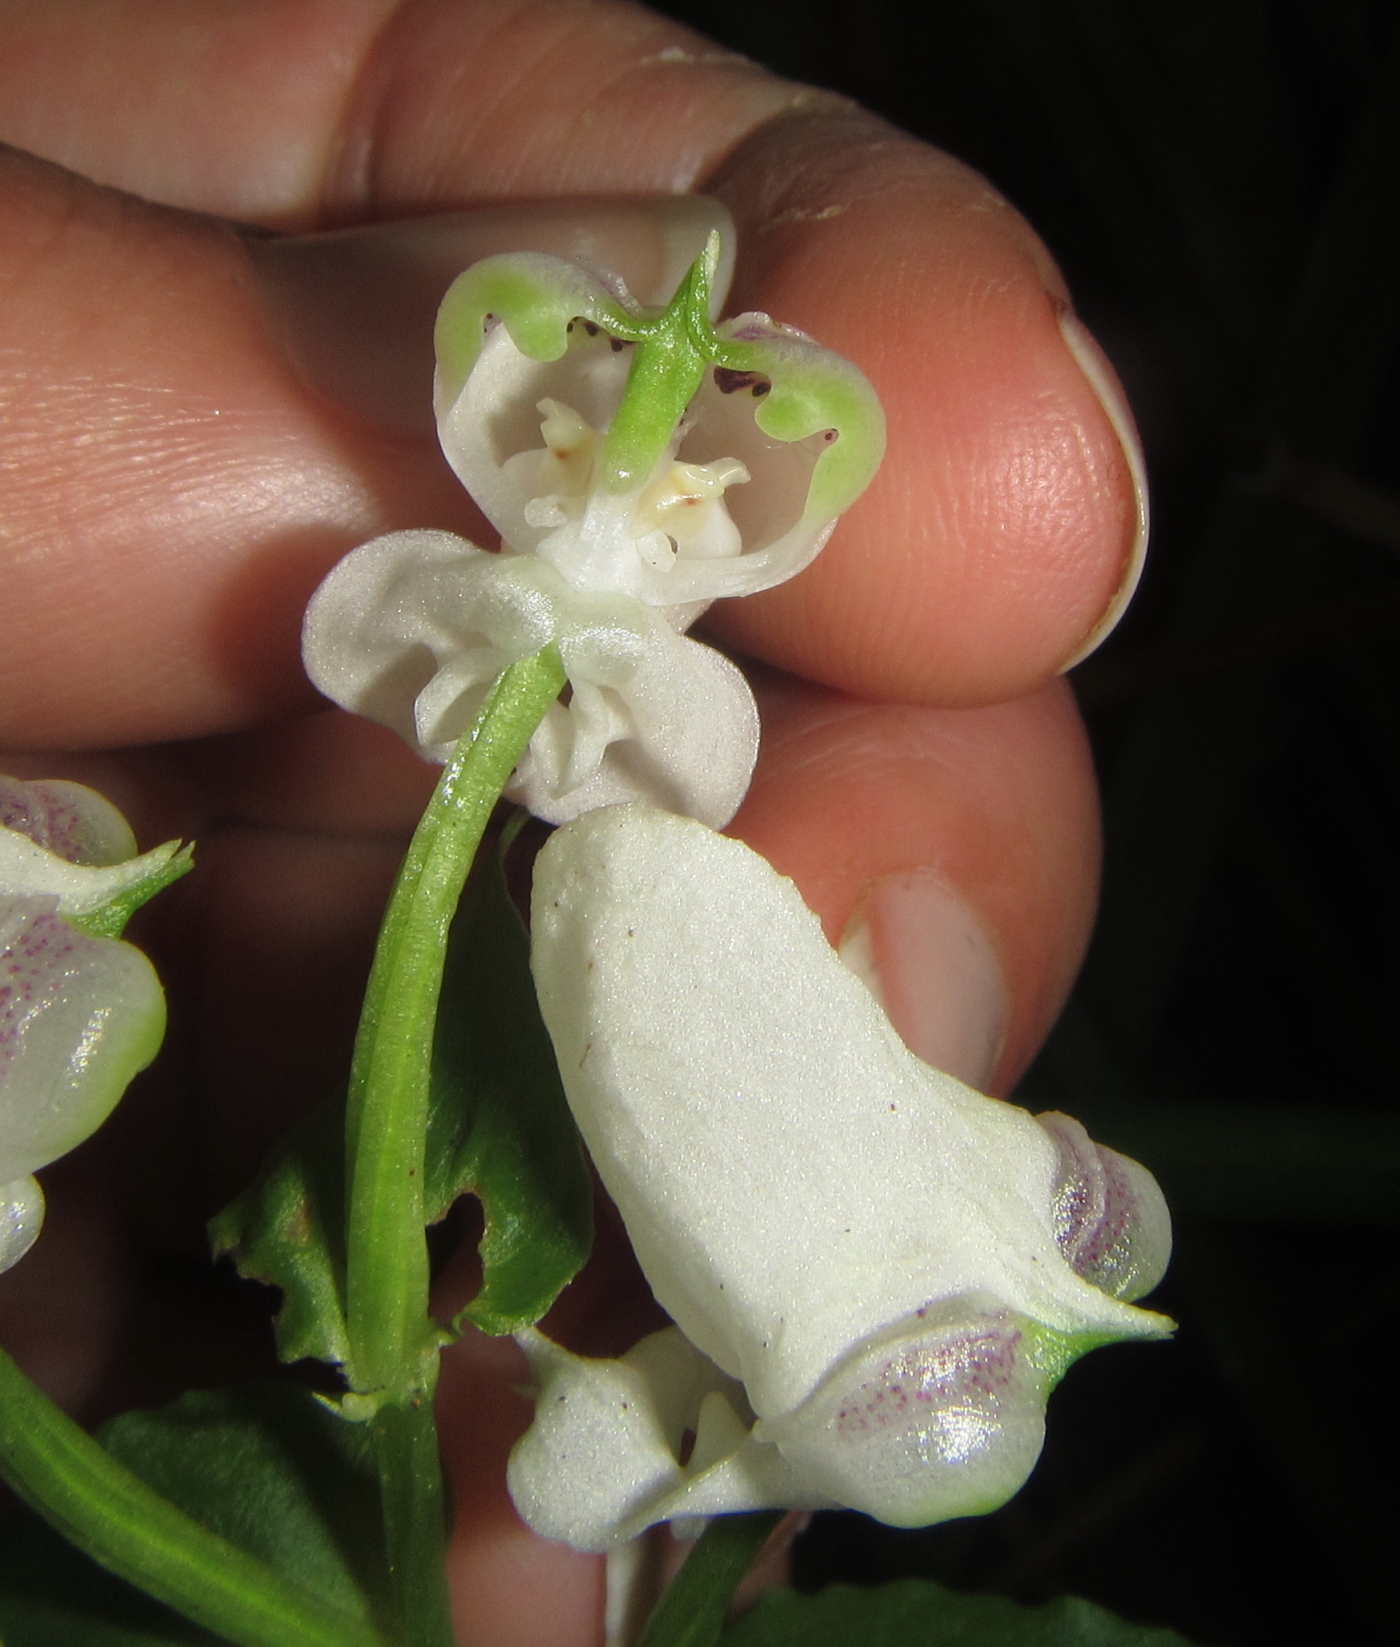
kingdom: Plantae
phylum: Tracheophyta
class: Liliopsida
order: Asparagales
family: Orchidaceae
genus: Disperis
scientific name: Disperis fanniniae
